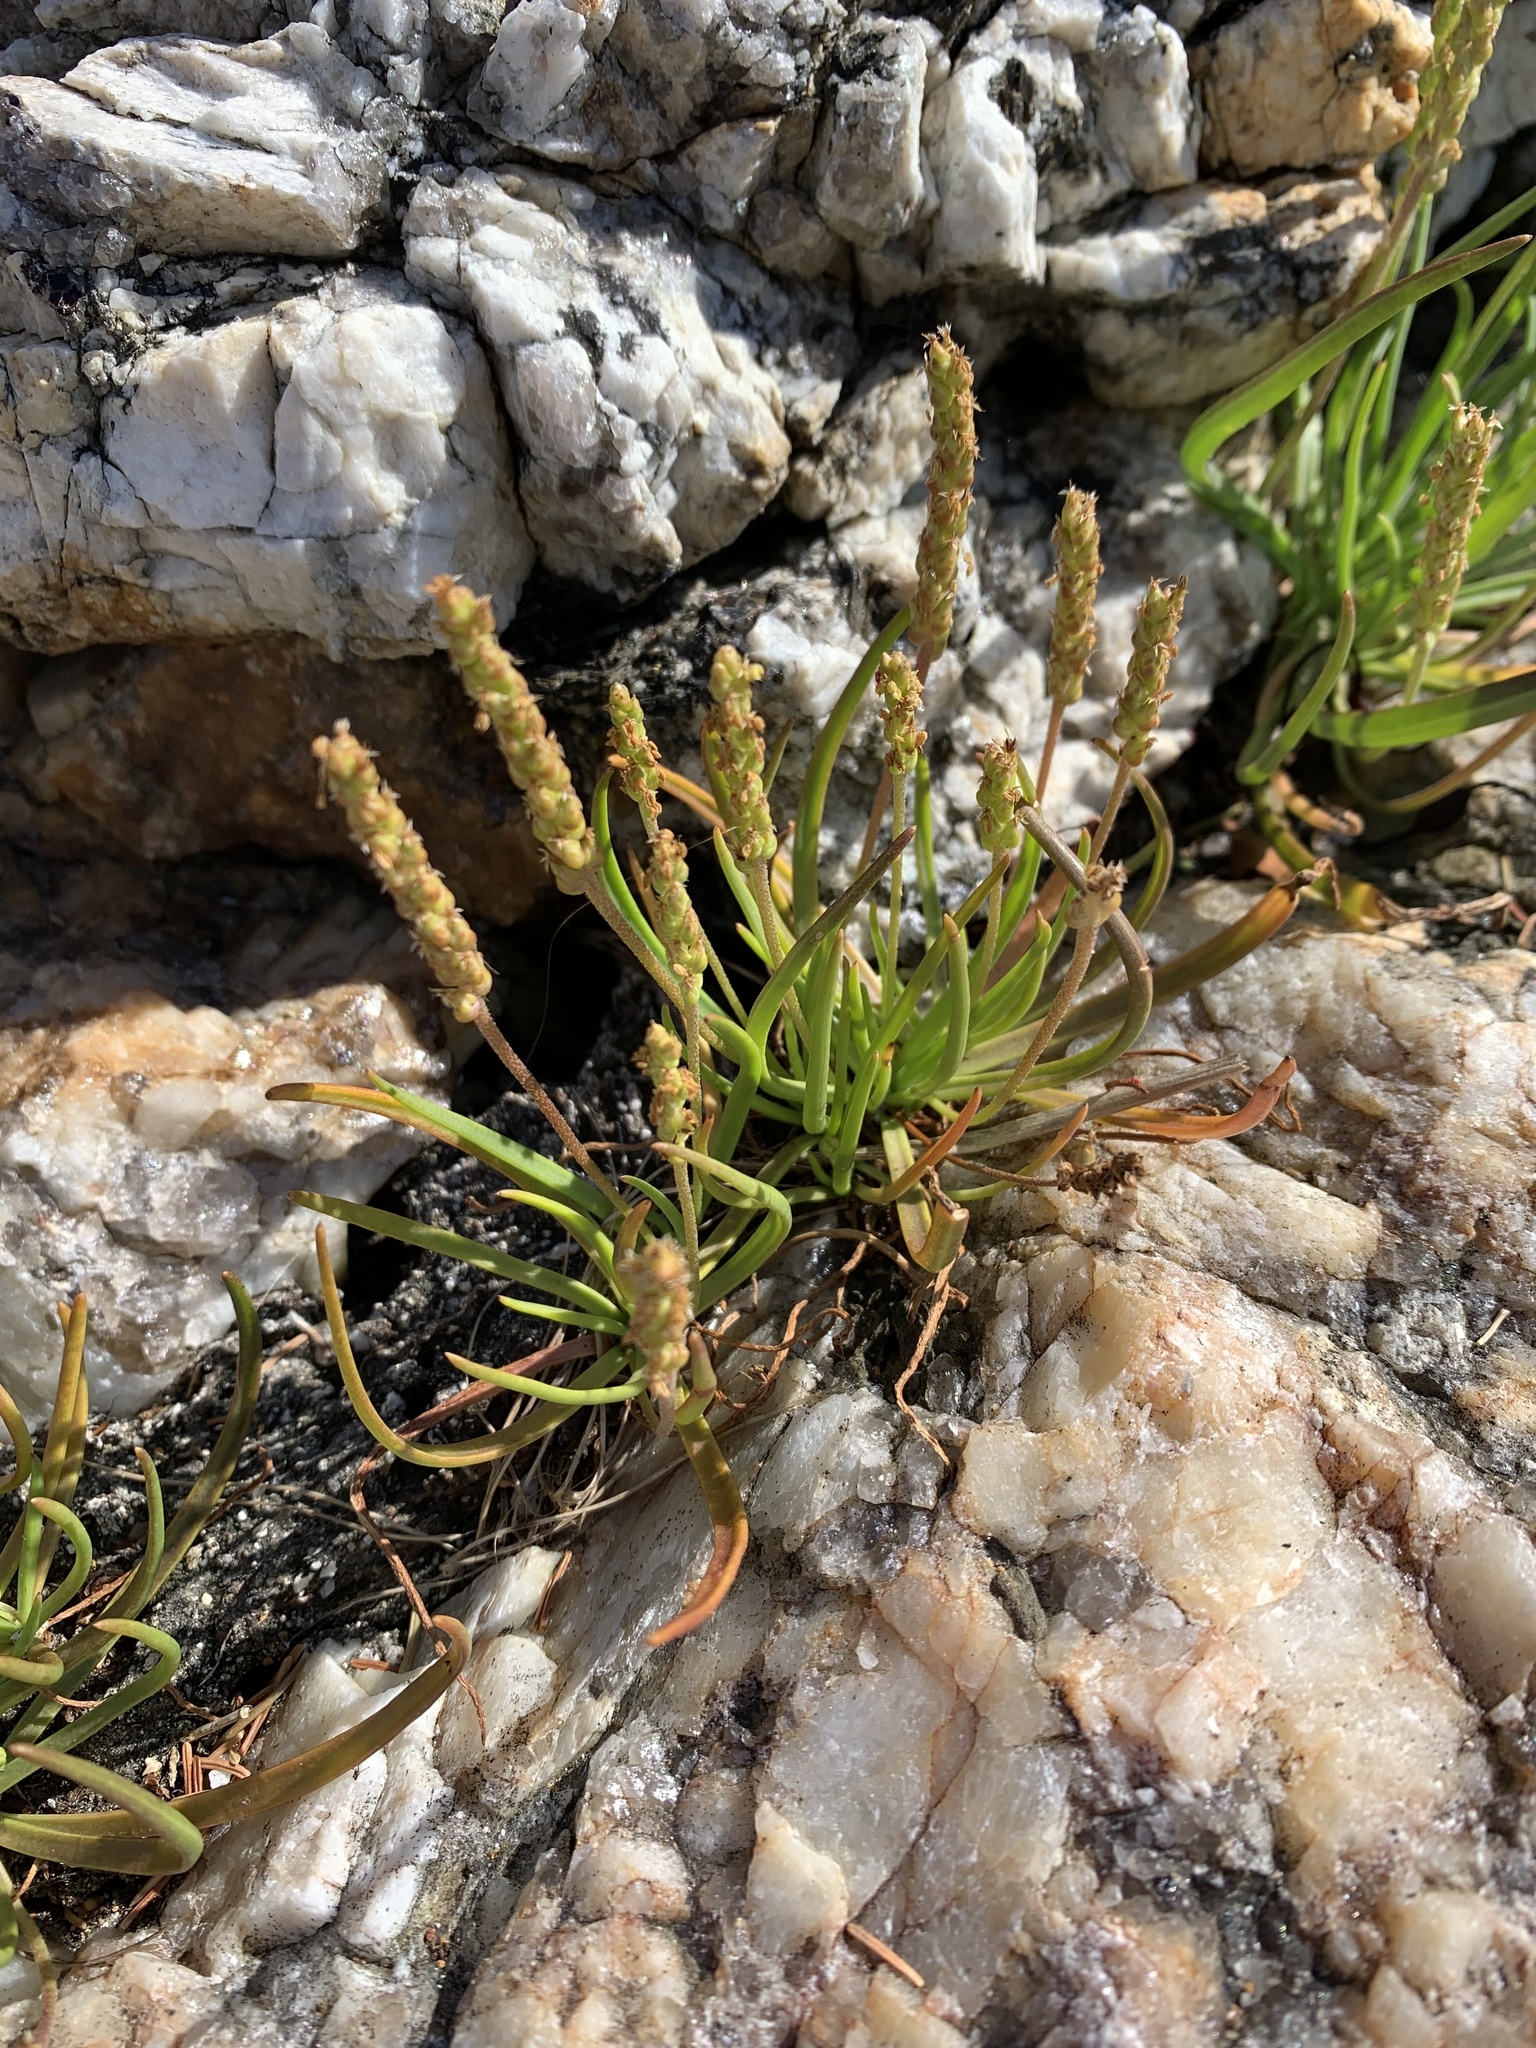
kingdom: Plantae
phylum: Tracheophyta
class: Magnoliopsida
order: Lamiales
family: Plantaginaceae
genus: Plantago
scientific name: Plantago maritima
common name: Sea plantain
